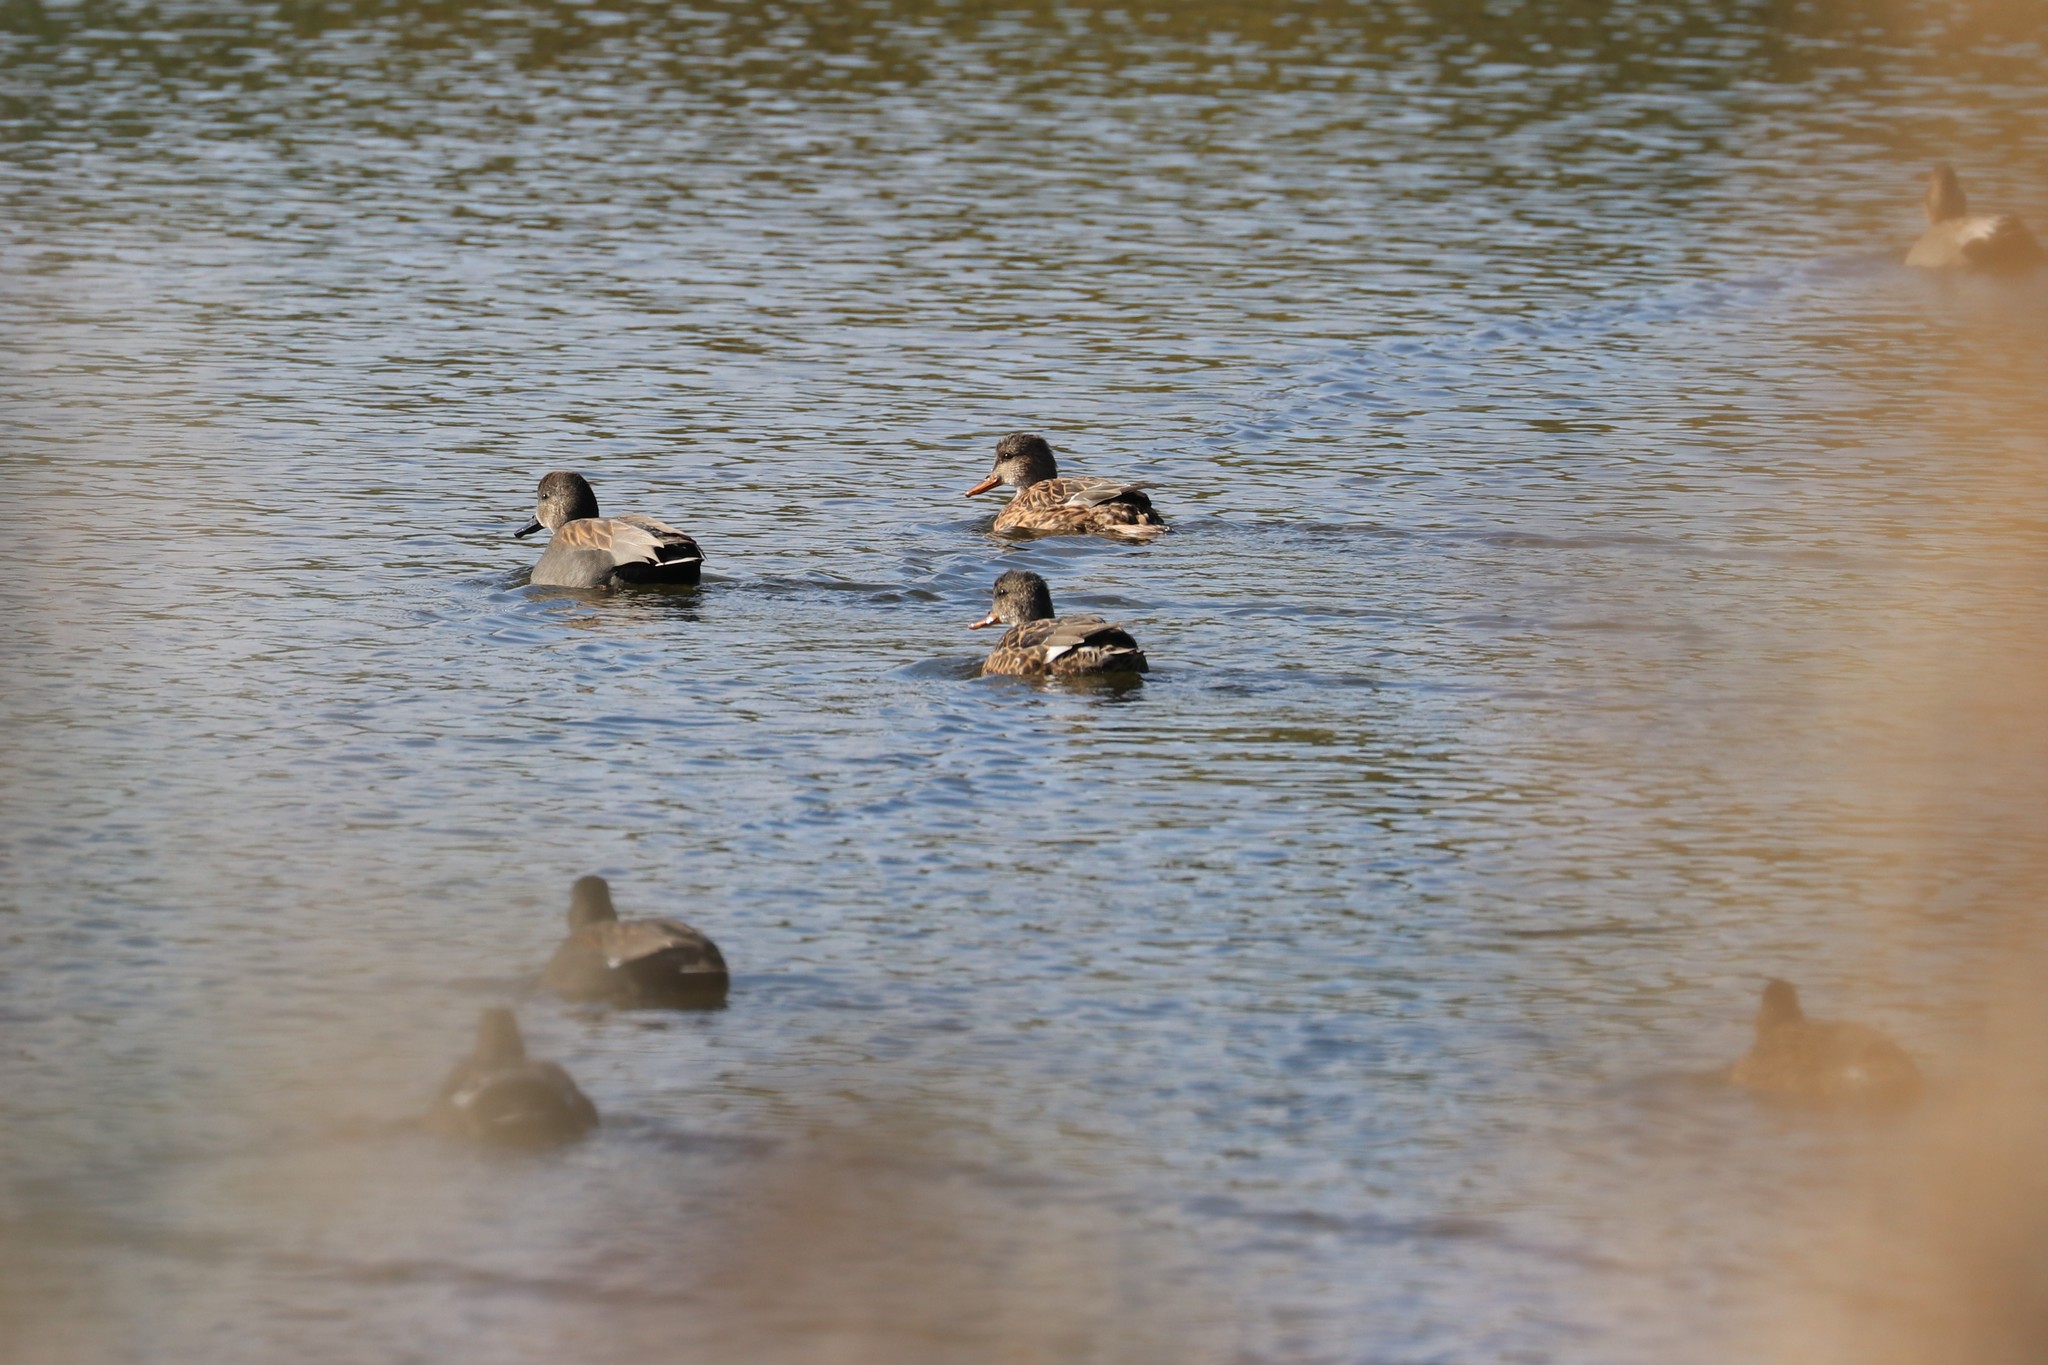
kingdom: Animalia
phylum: Chordata
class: Aves
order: Anseriformes
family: Anatidae
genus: Mareca
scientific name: Mareca strepera
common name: Gadwall
